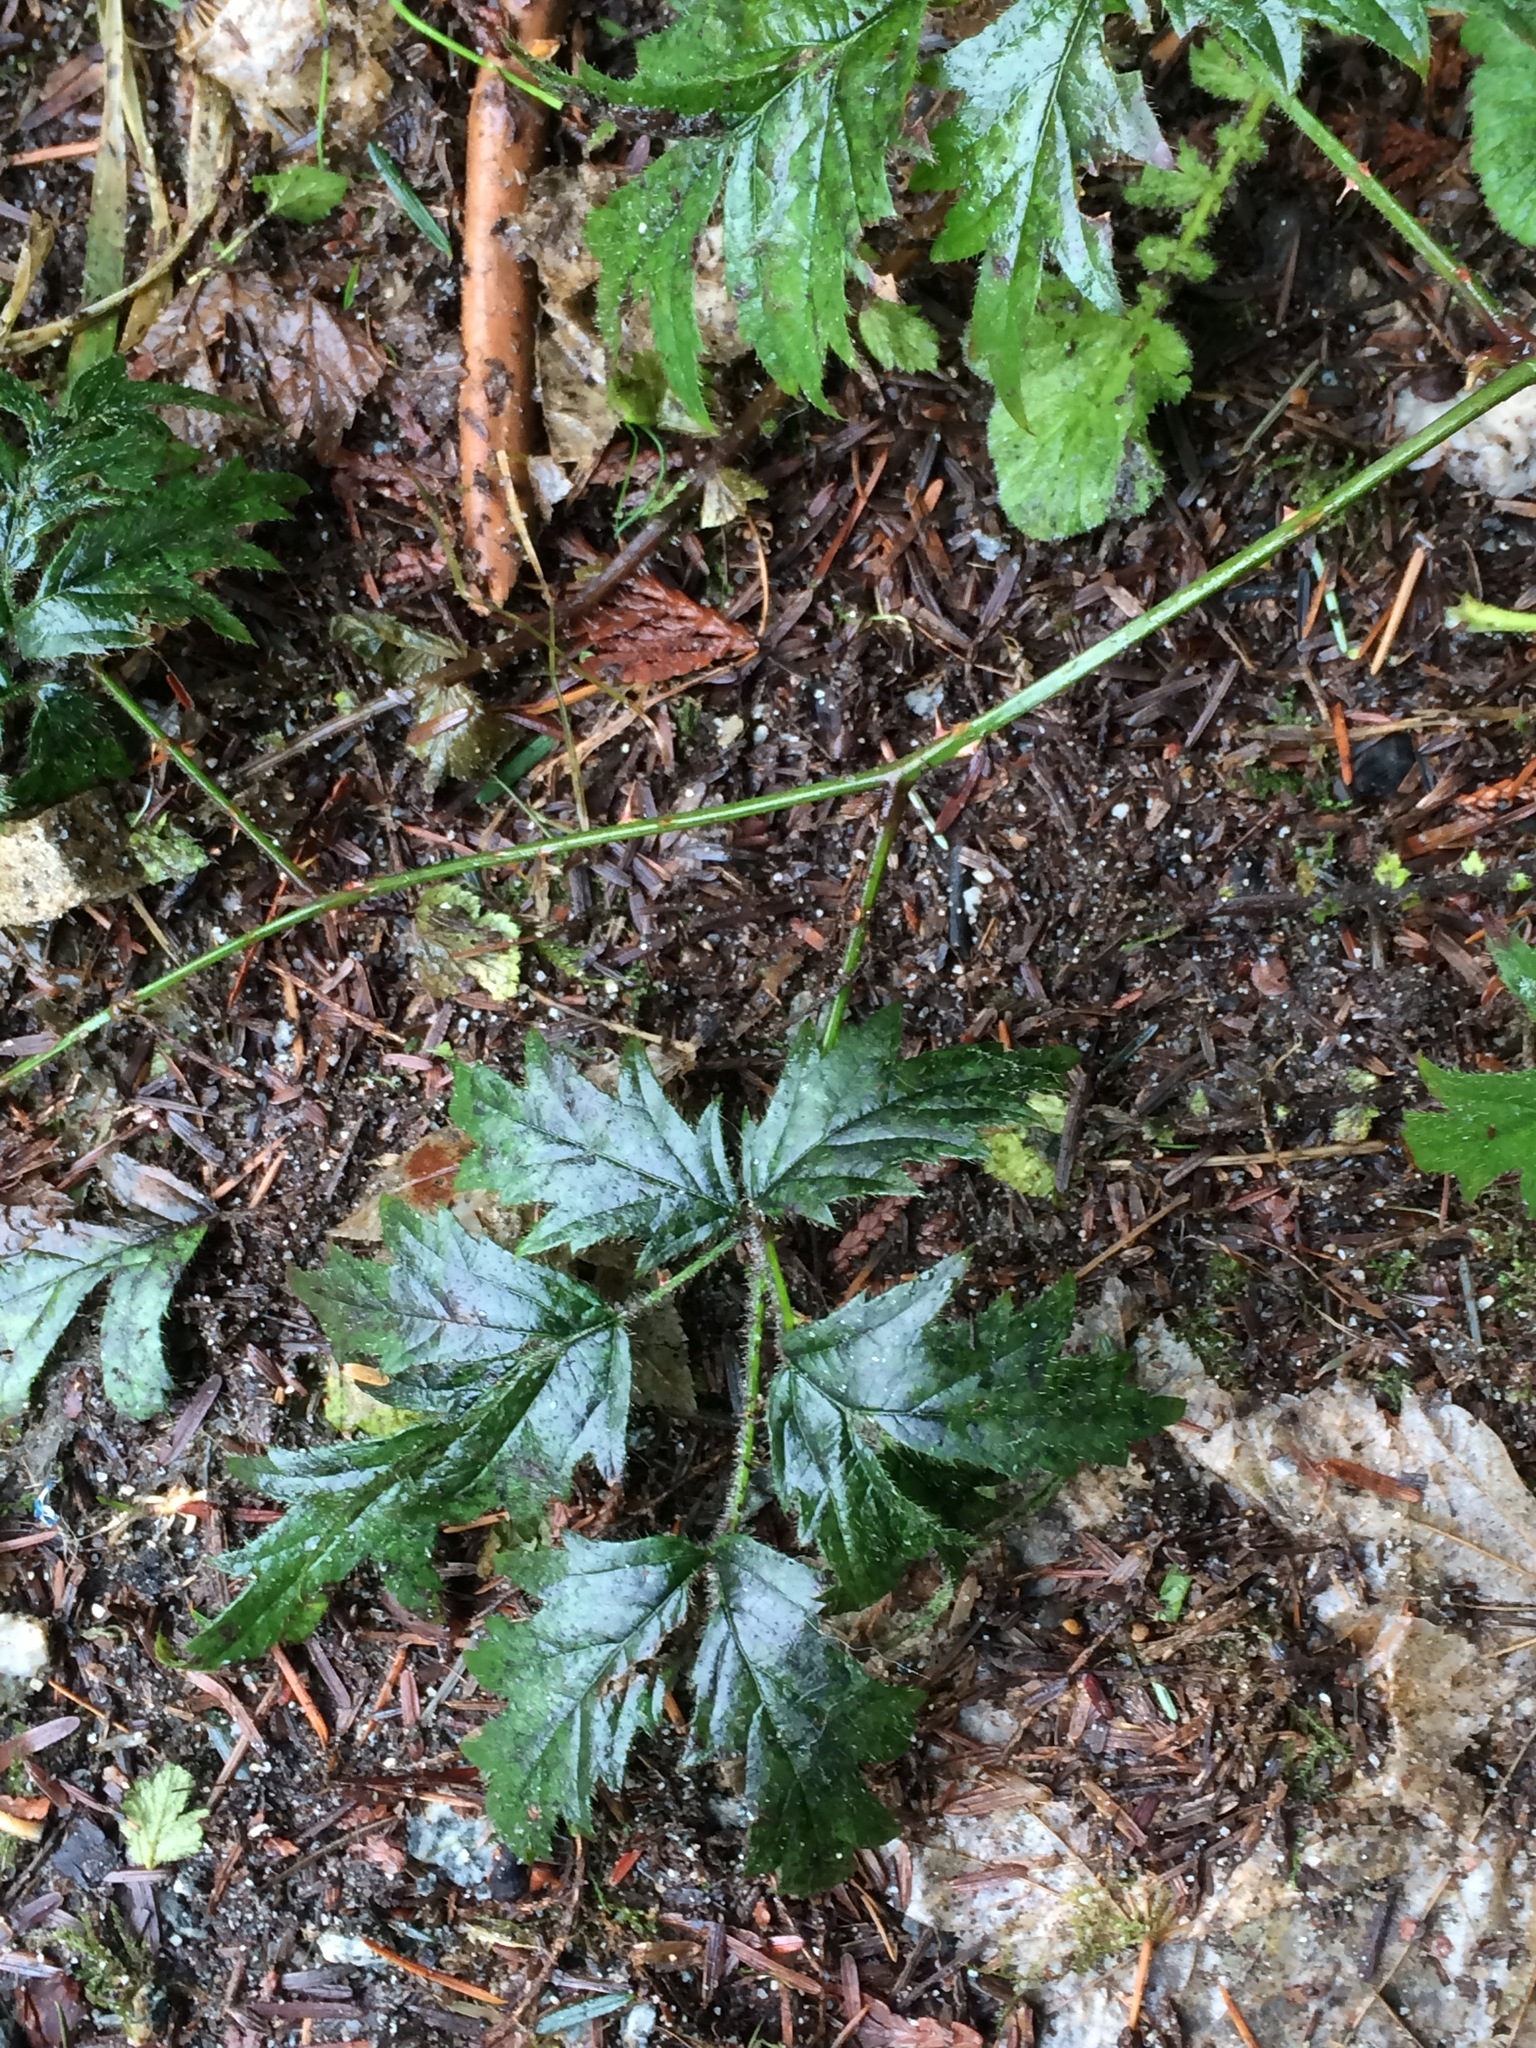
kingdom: Plantae
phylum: Tracheophyta
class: Magnoliopsida
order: Rosales
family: Rosaceae
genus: Rubus
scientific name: Rubus laciniatus
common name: Evergreen blackberry
